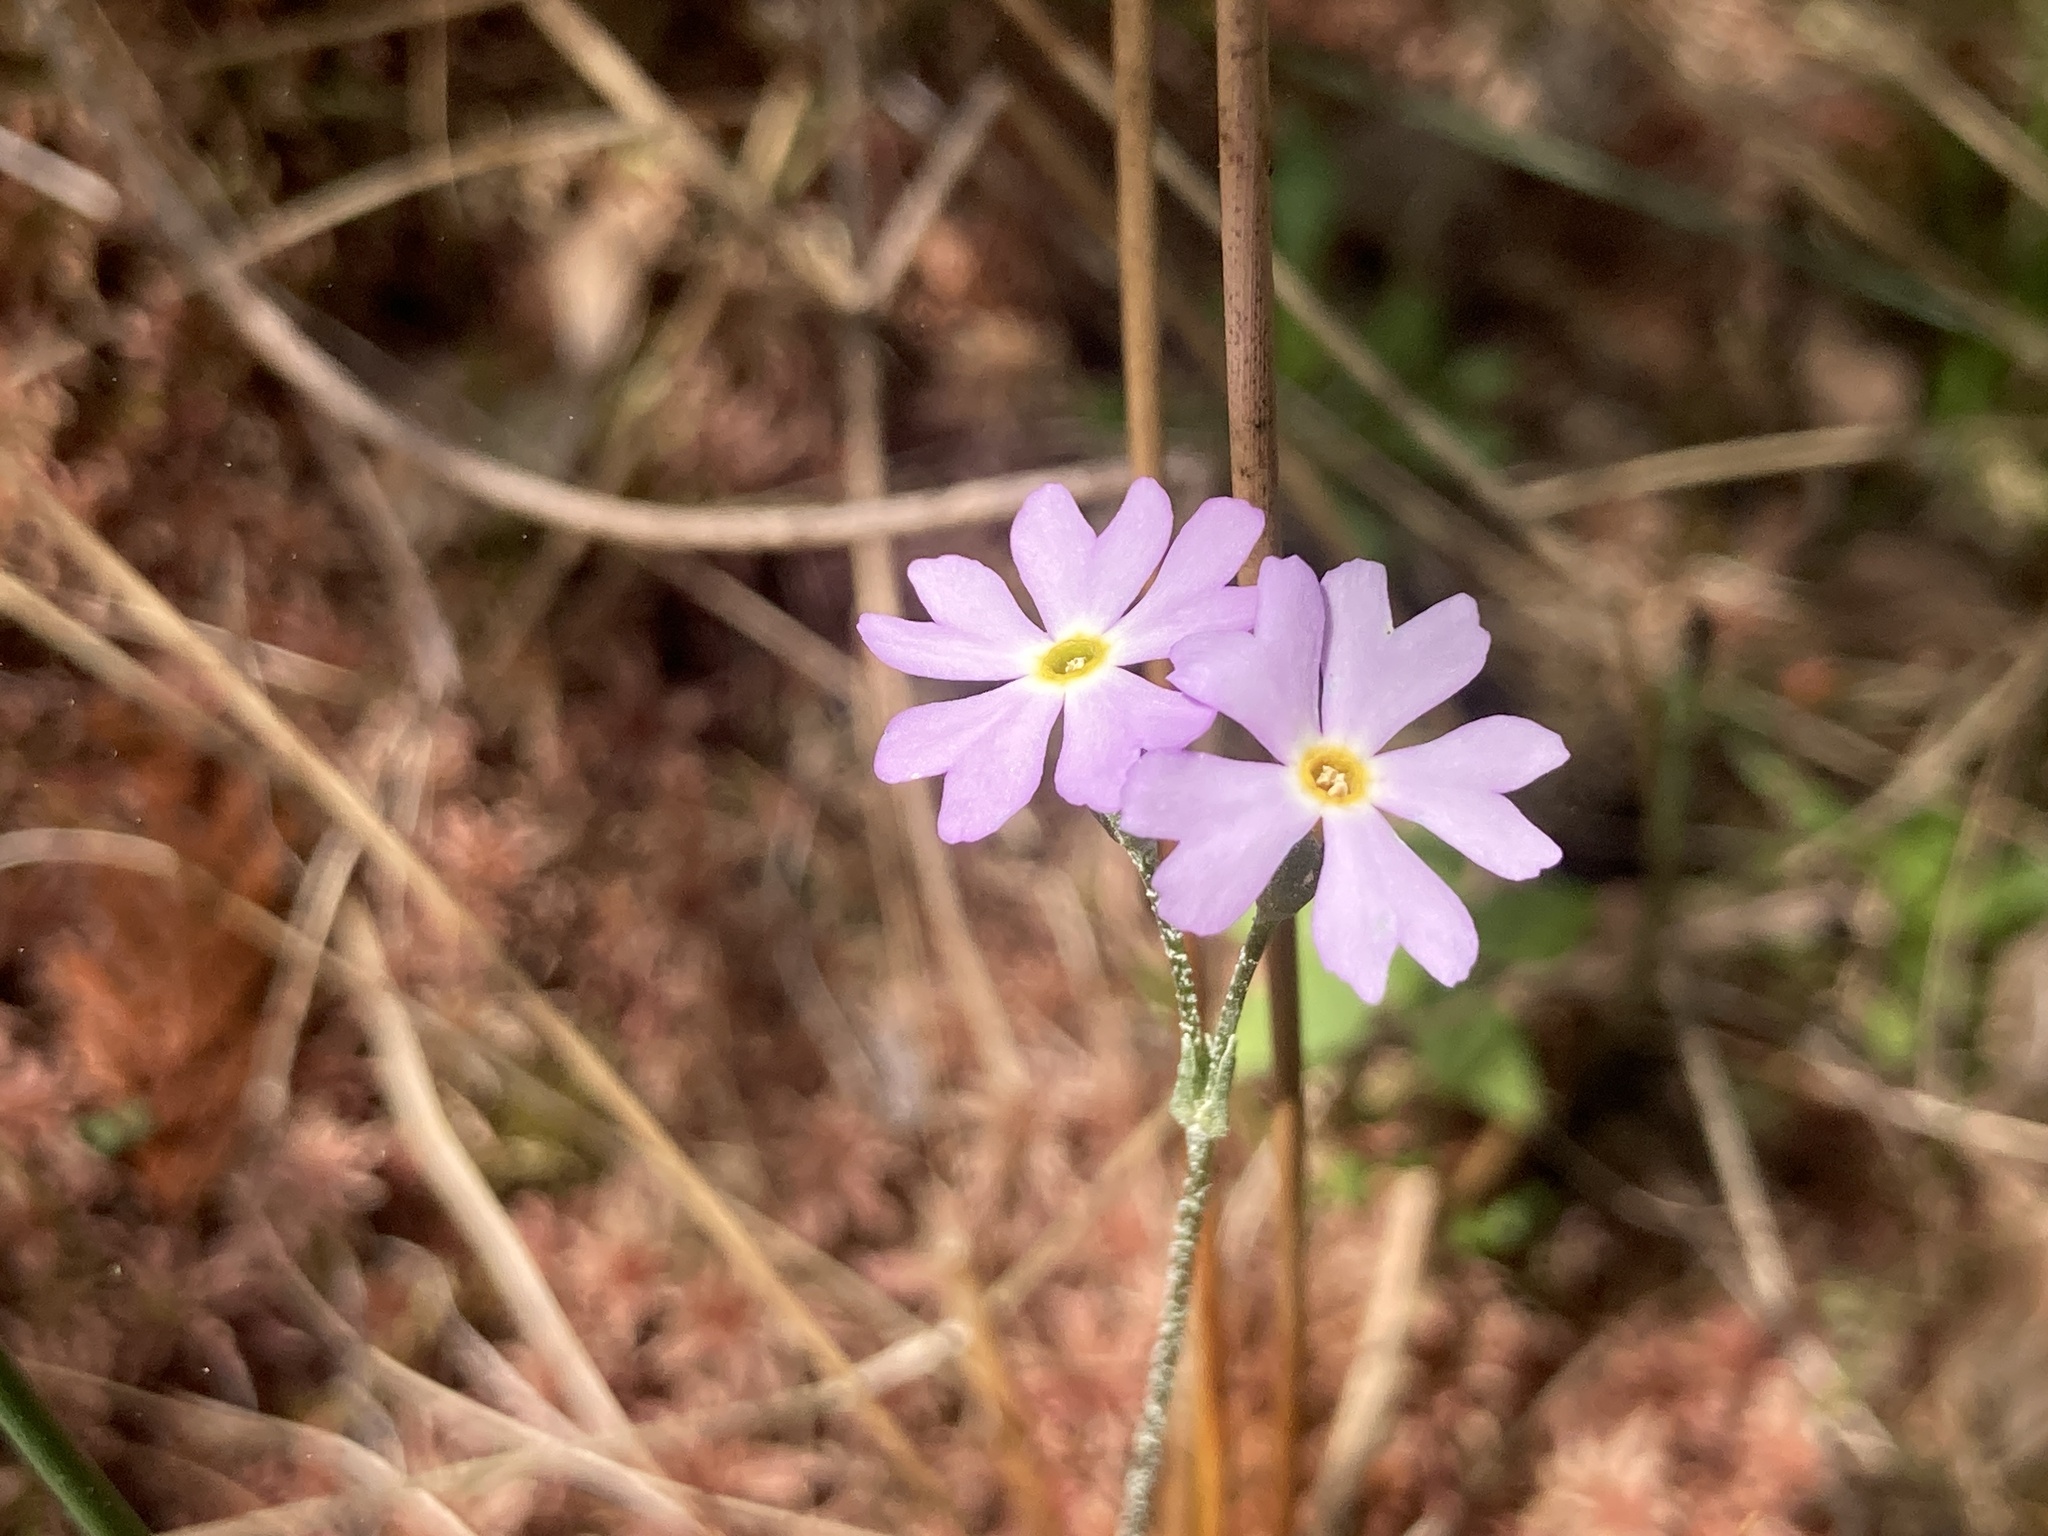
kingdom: Plantae
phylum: Tracheophyta
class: Magnoliopsida
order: Ericales
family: Primulaceae
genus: Primula
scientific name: Primula mistassinica
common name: Bird's-eye primrose
